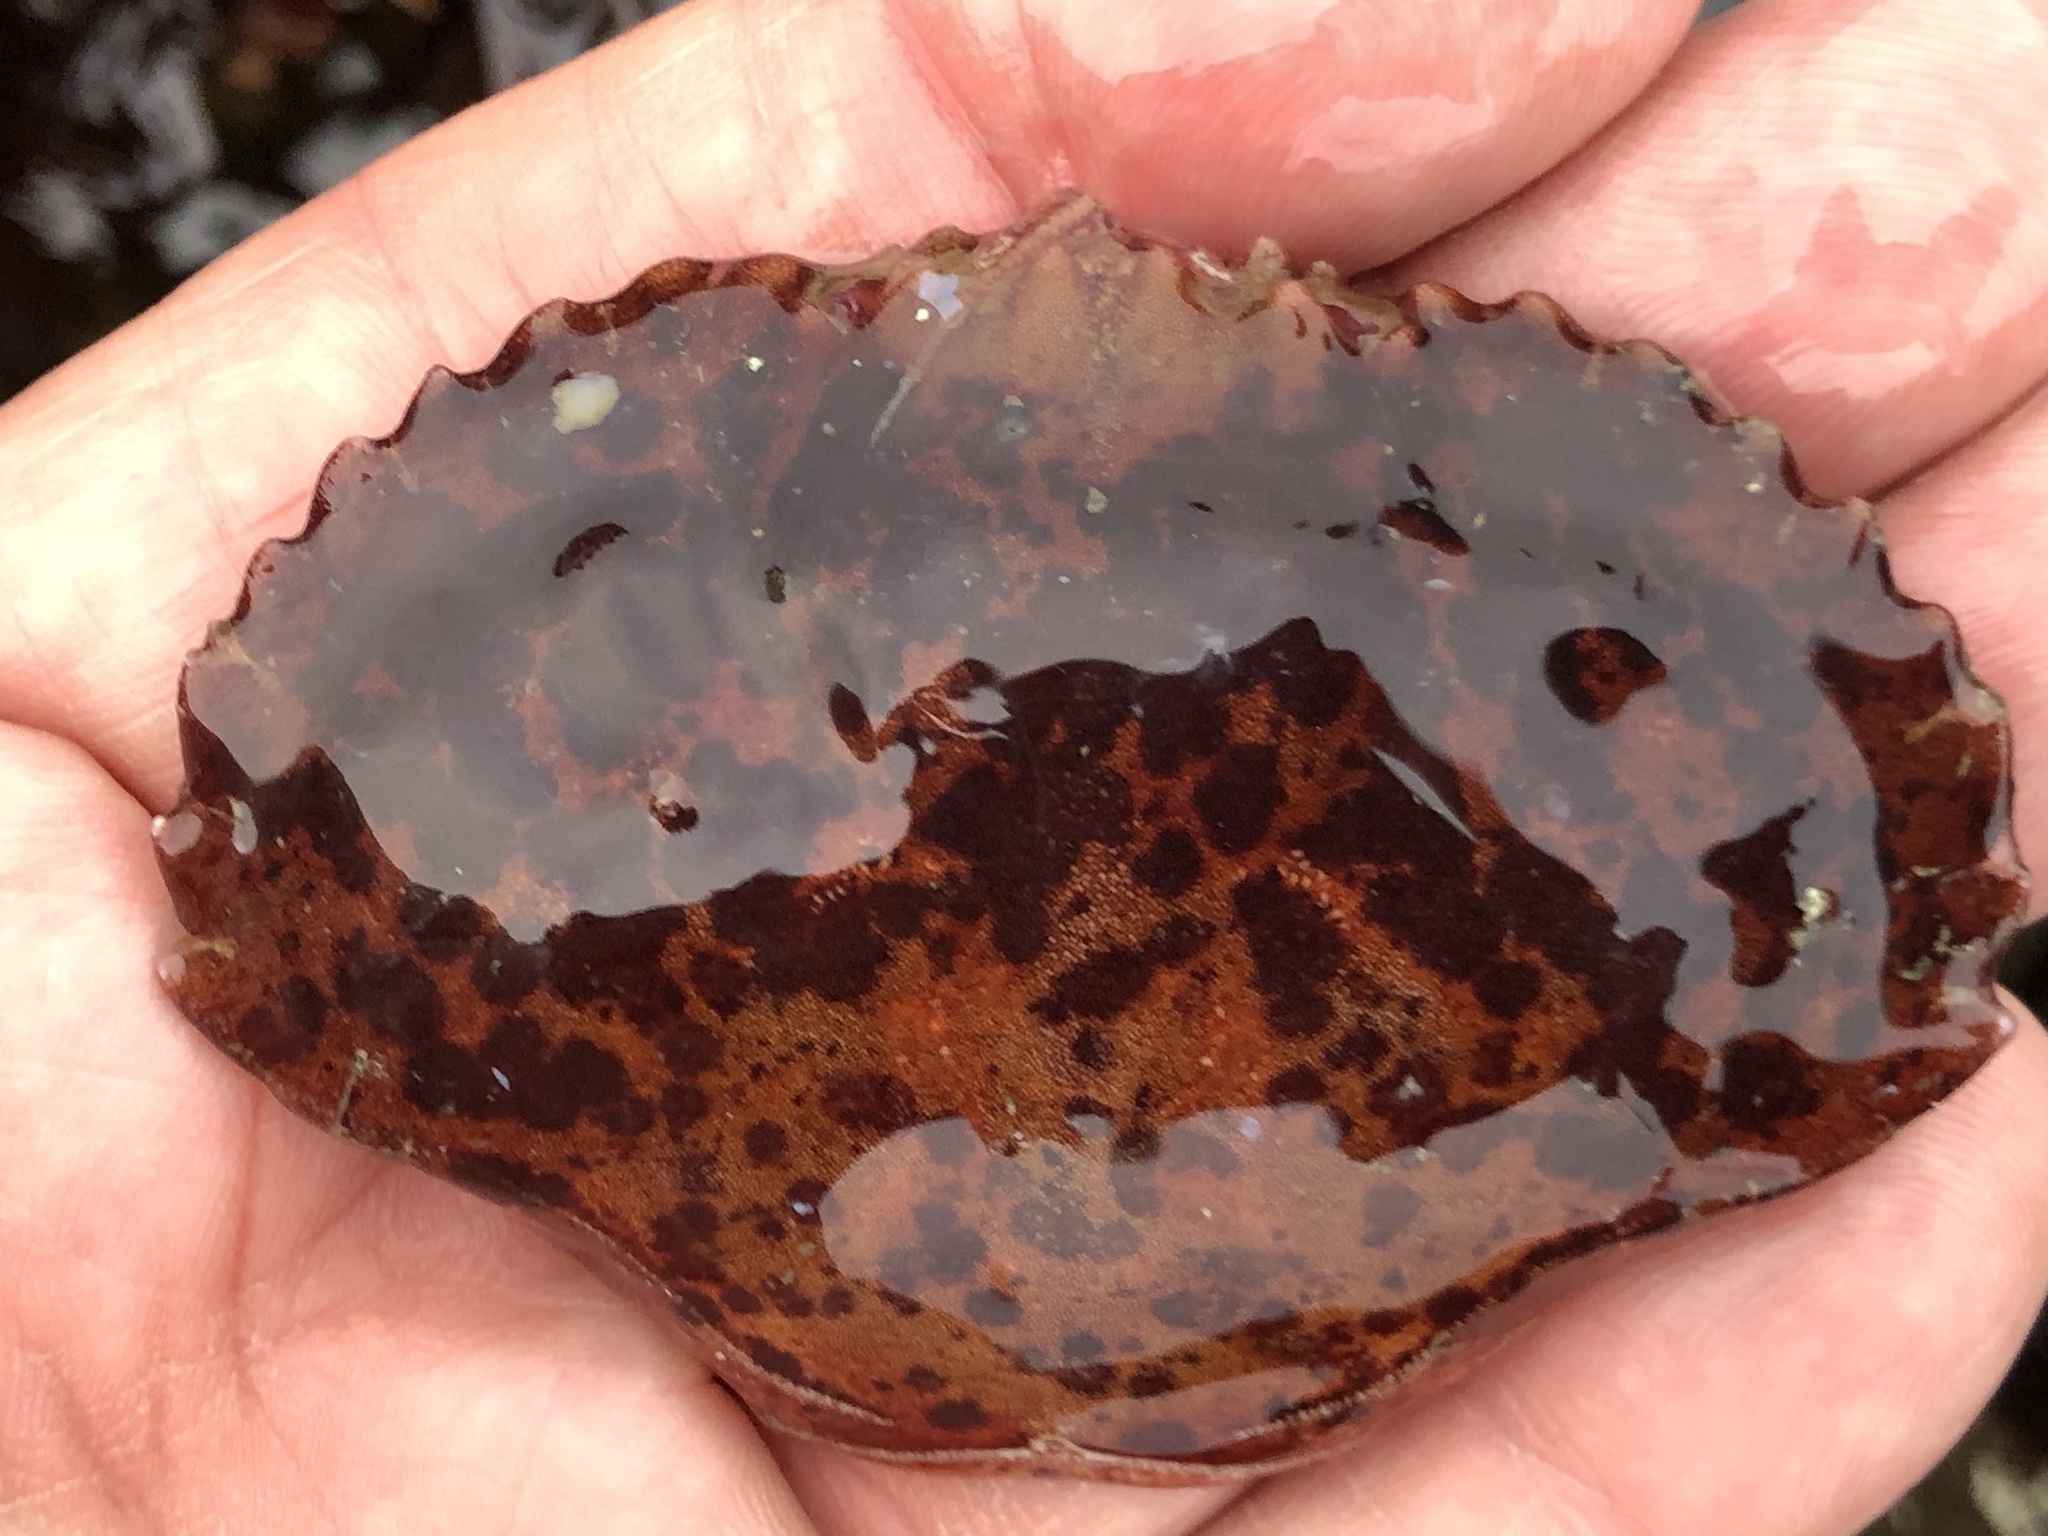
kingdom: Animalia
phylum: Arthropoda
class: Malacostraca
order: Decapoda
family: Cancridae
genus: Romaleon
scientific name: Romaleon antennarium
